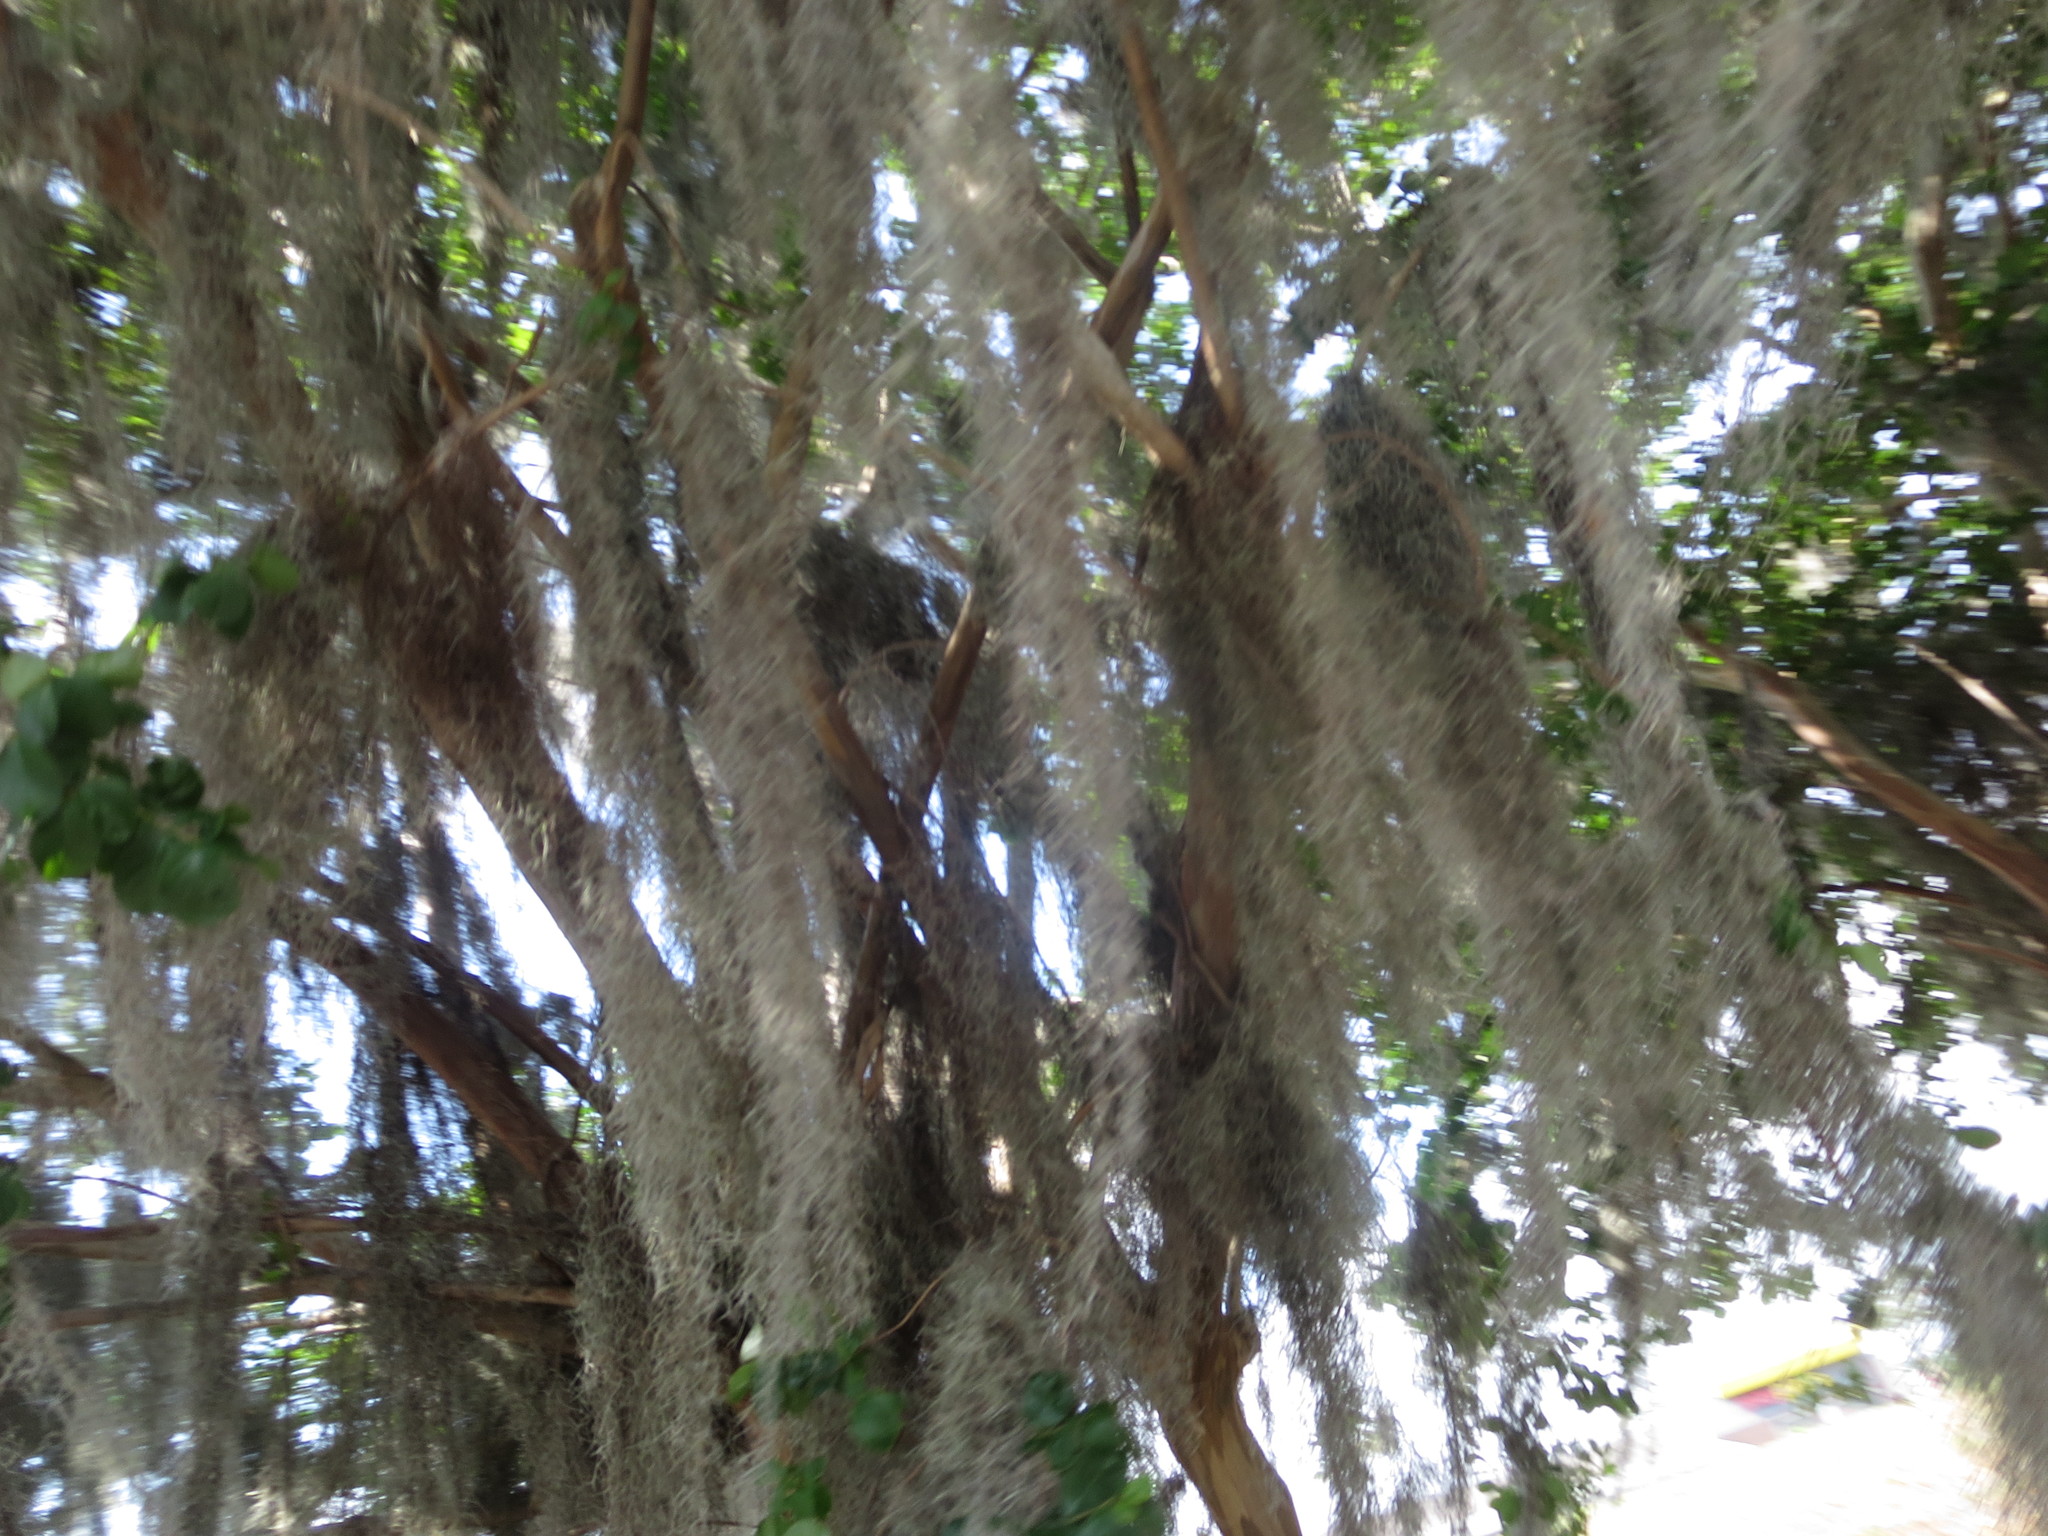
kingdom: Plantae
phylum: Tracheophyta
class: Liliopsida
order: Poales
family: Bromeliaceae
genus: Tillandsia
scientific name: Tillandsia usneoides
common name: Spanish moss
